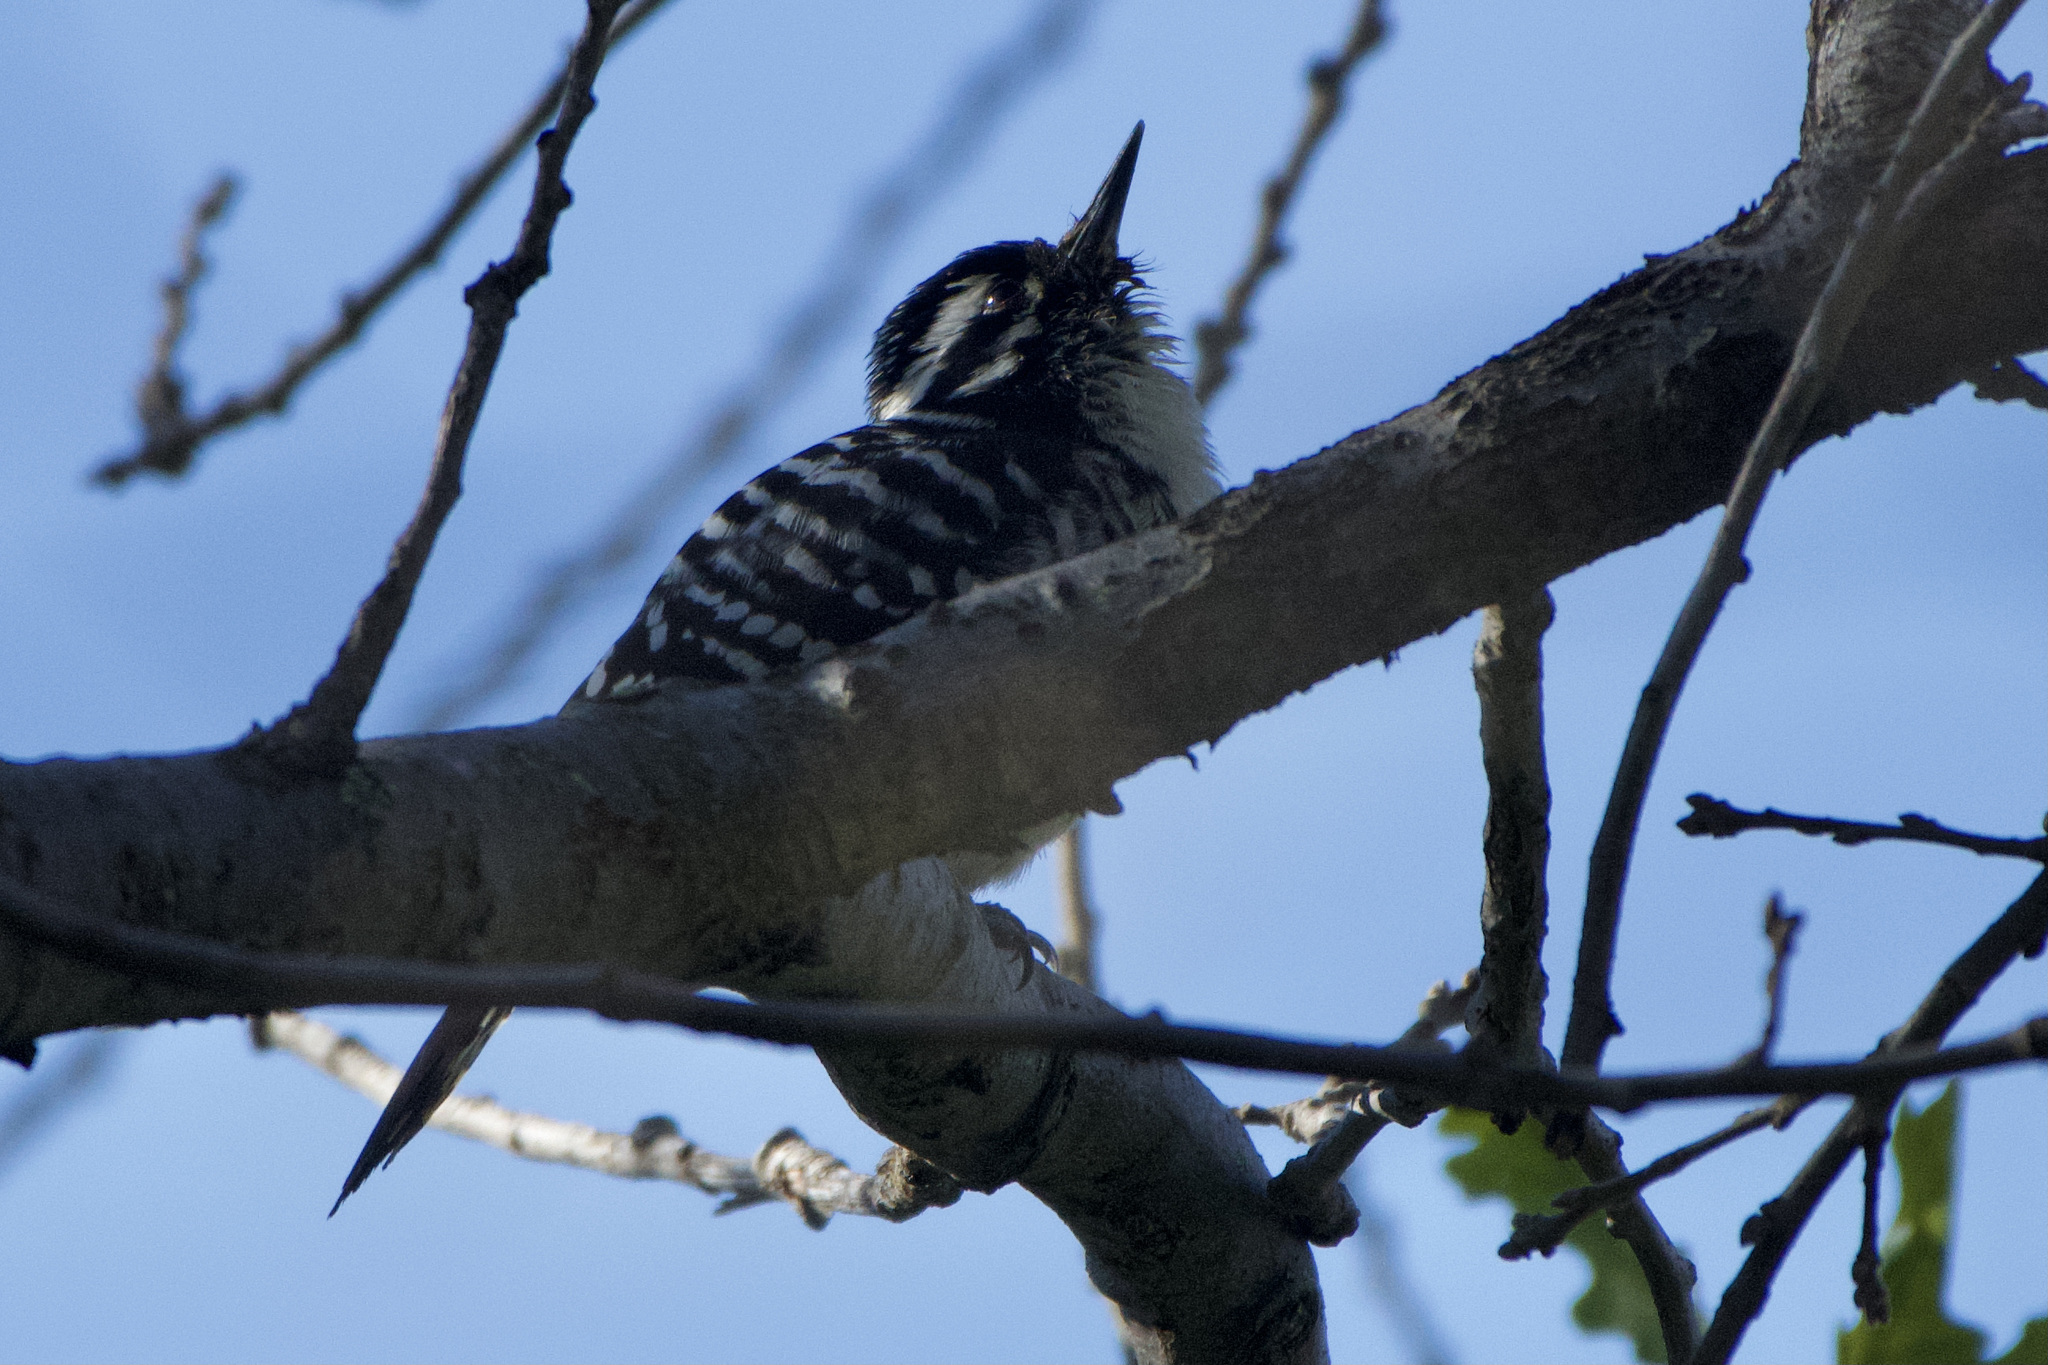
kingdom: Animalia
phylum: Chordata
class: Aves
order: Piciformes
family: Picidae
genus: Dryobates
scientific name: Dryobates nuttallii
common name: Nuttall's woodpecker
